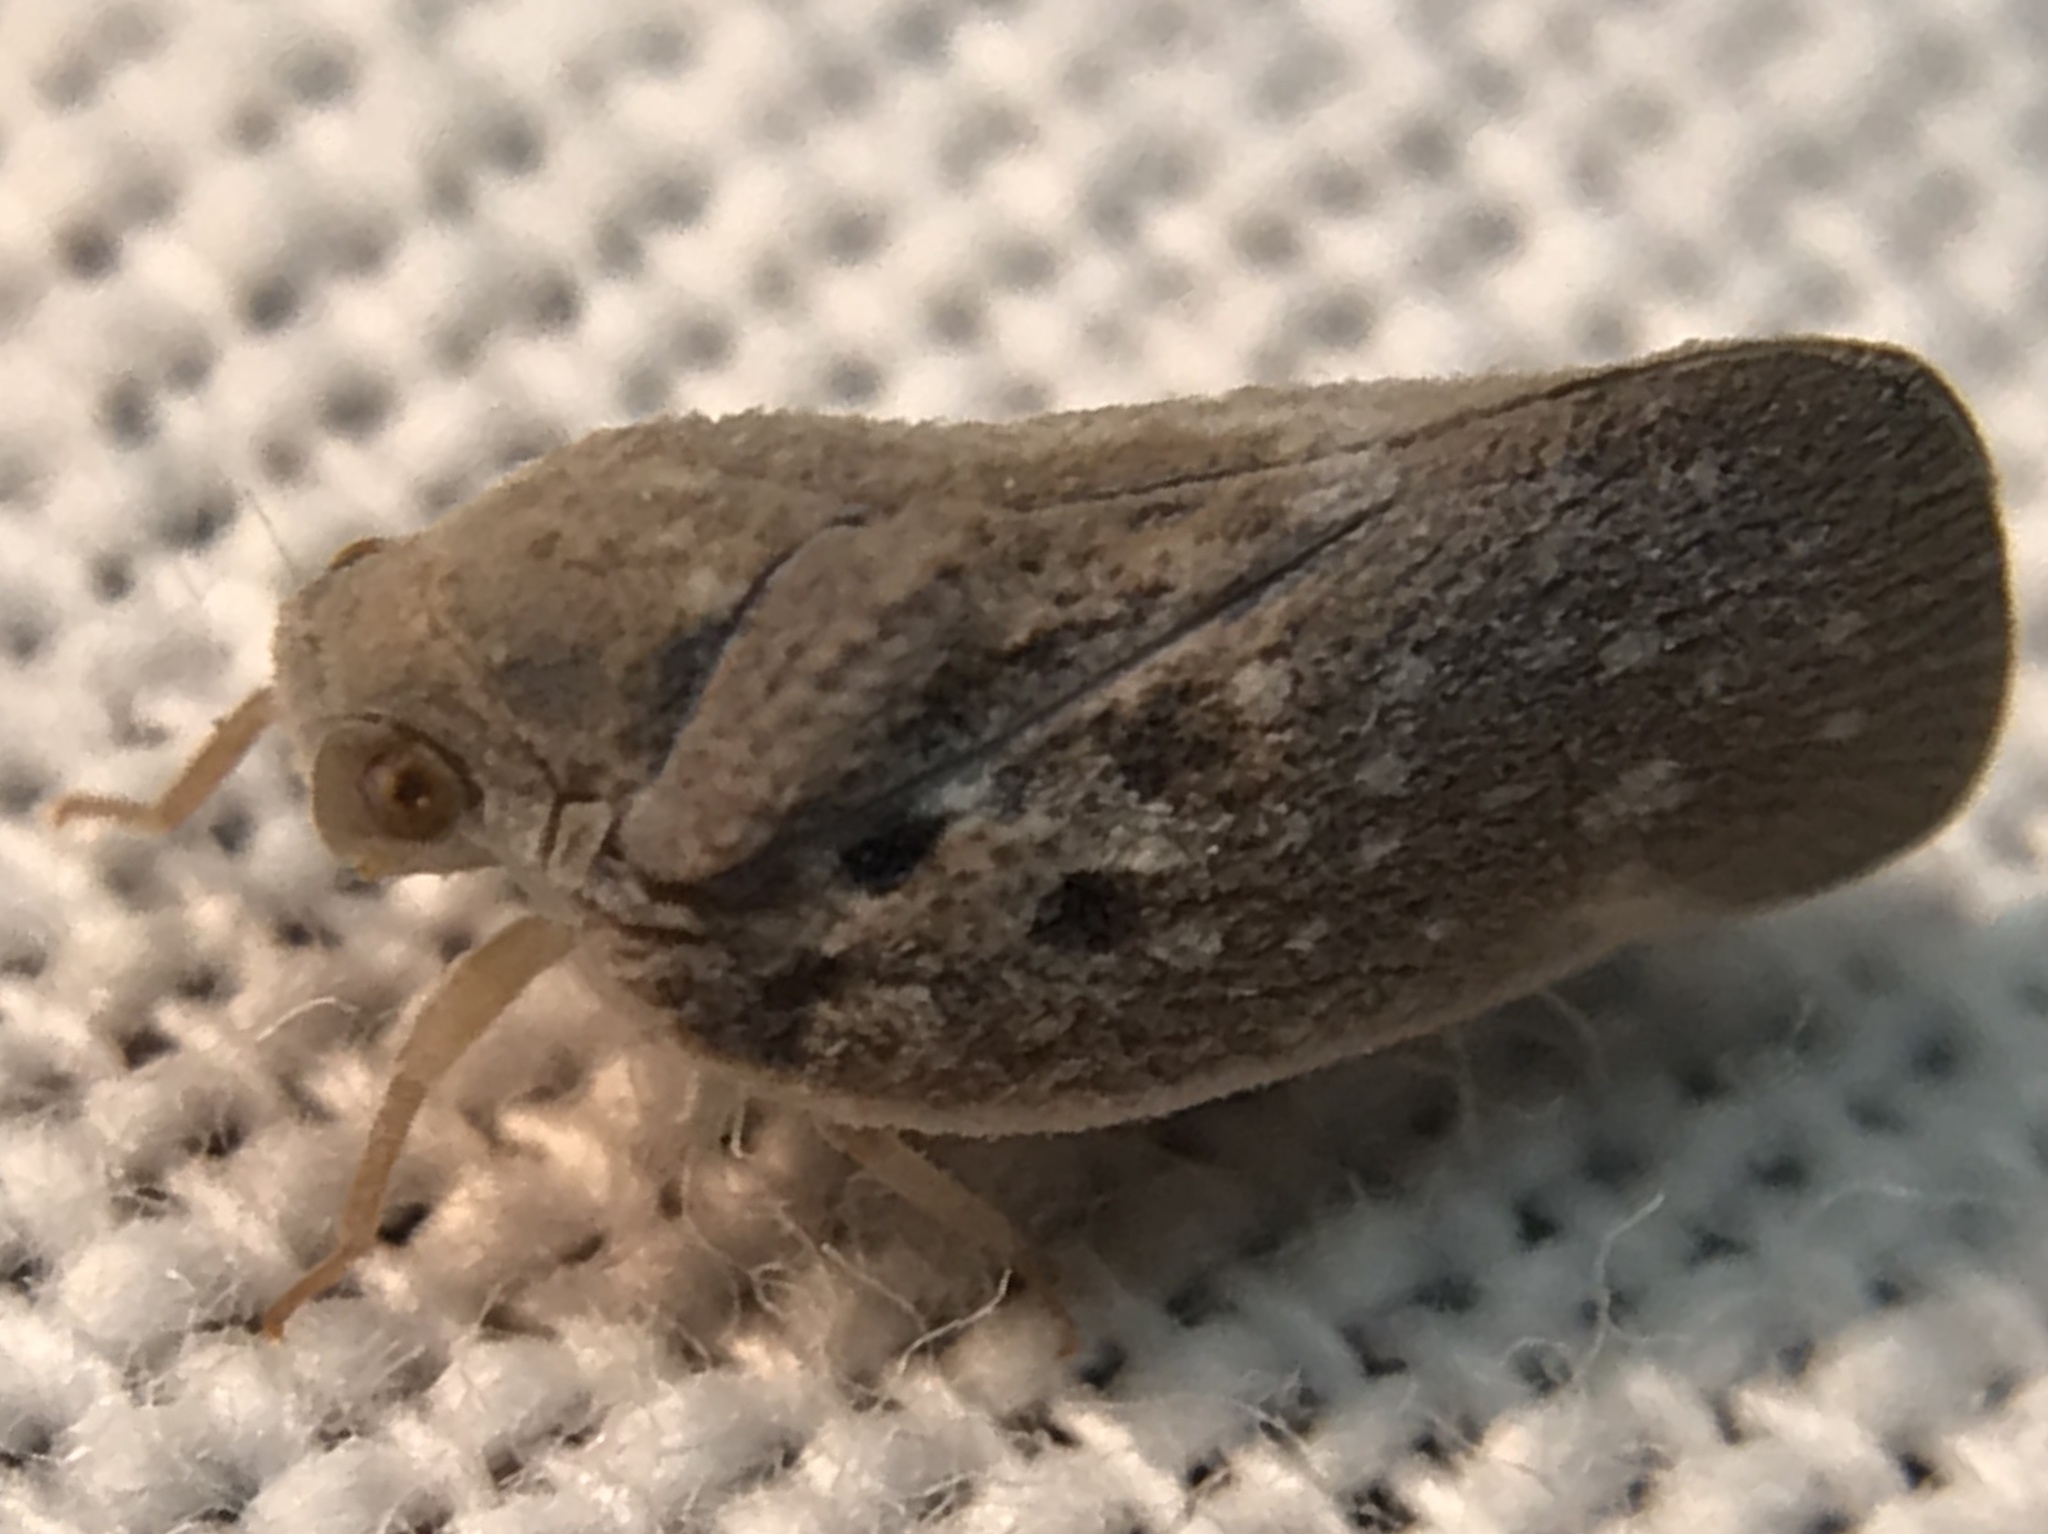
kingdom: Animalia
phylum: Arthropoda
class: Insecta
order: Hemiptera
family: Flatidae
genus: Metcalfa
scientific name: Metcalfa pruinosa
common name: Citrus flatid planthopper
